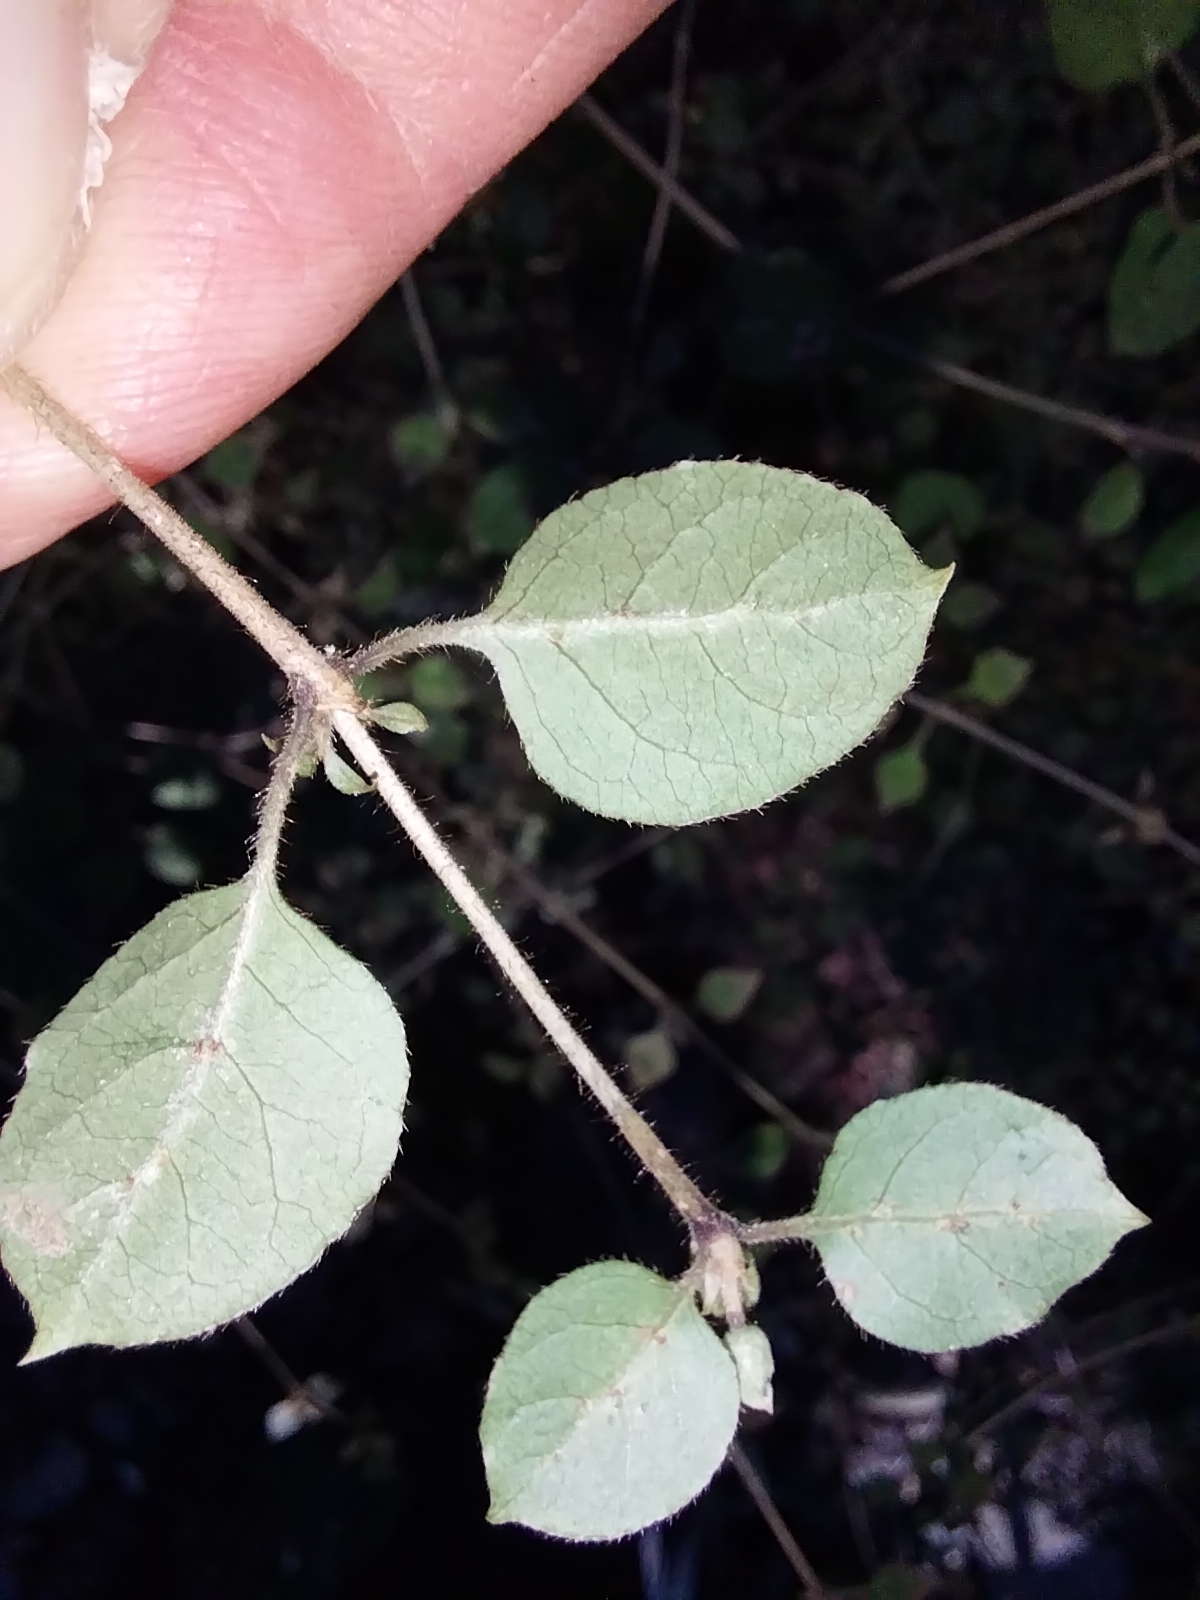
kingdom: Plantae
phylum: Tracheophyta
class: Magnoliopsida
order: Gentianales
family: Rubiaceae
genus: Coprosma
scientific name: Coprosma rotundifolia
